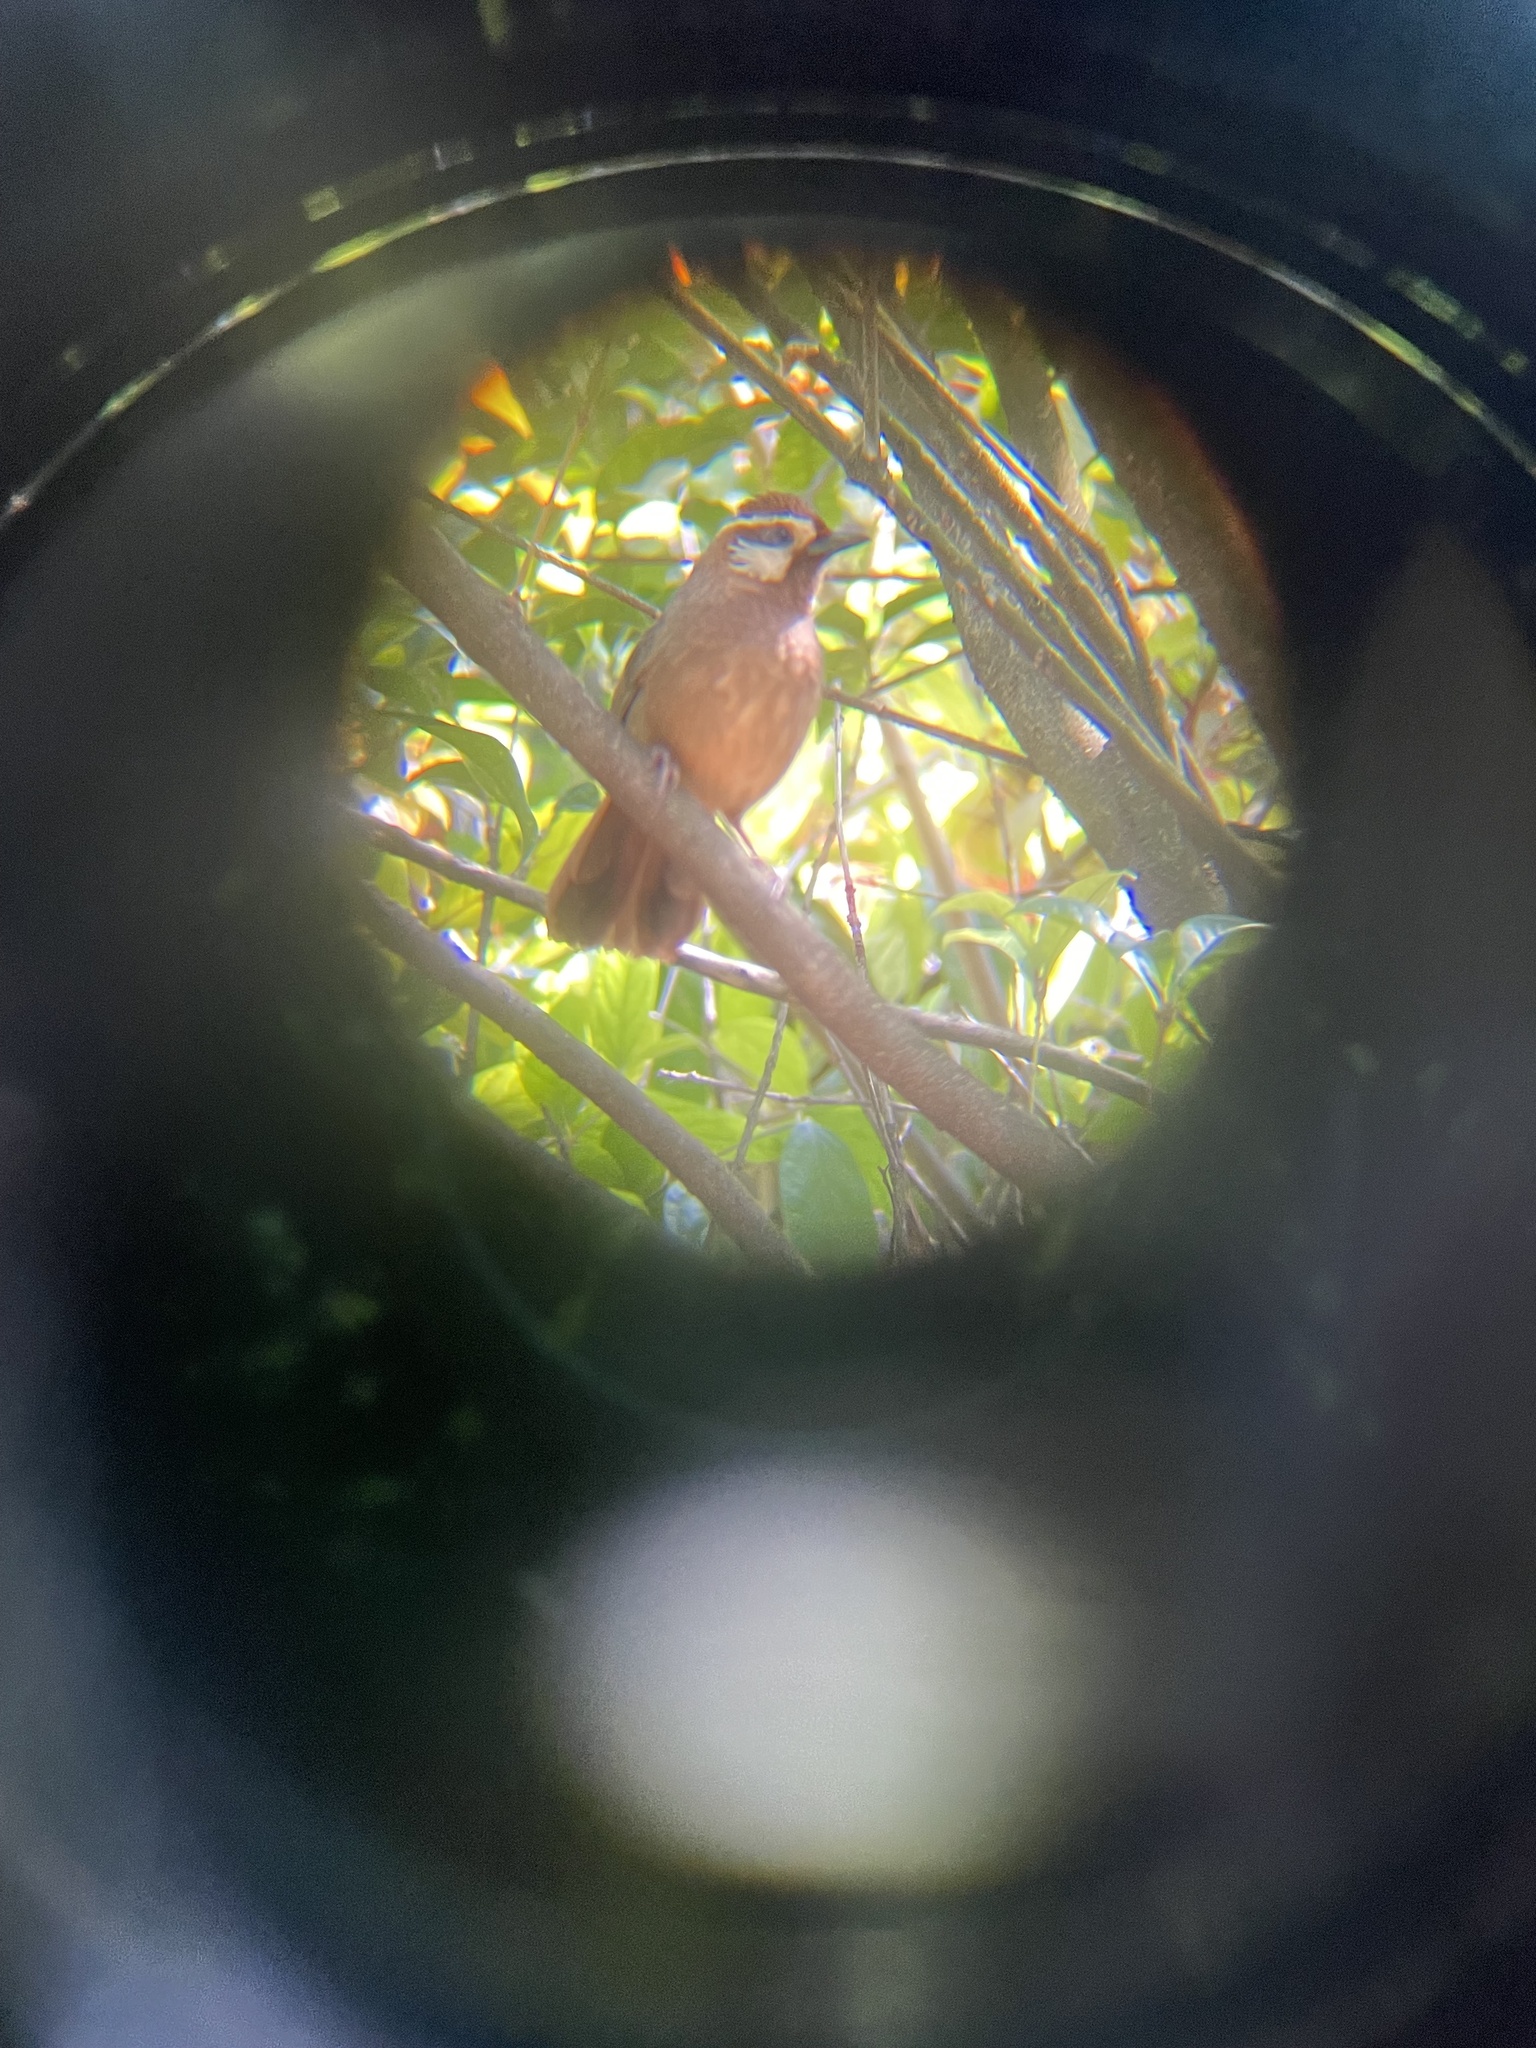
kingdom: Animalia
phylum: Chordata
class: Aves
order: Passeriformes
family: Leiothrichidae
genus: Pterorhinus
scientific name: Pterorhinus sannio
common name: White-browed laughingthrush
